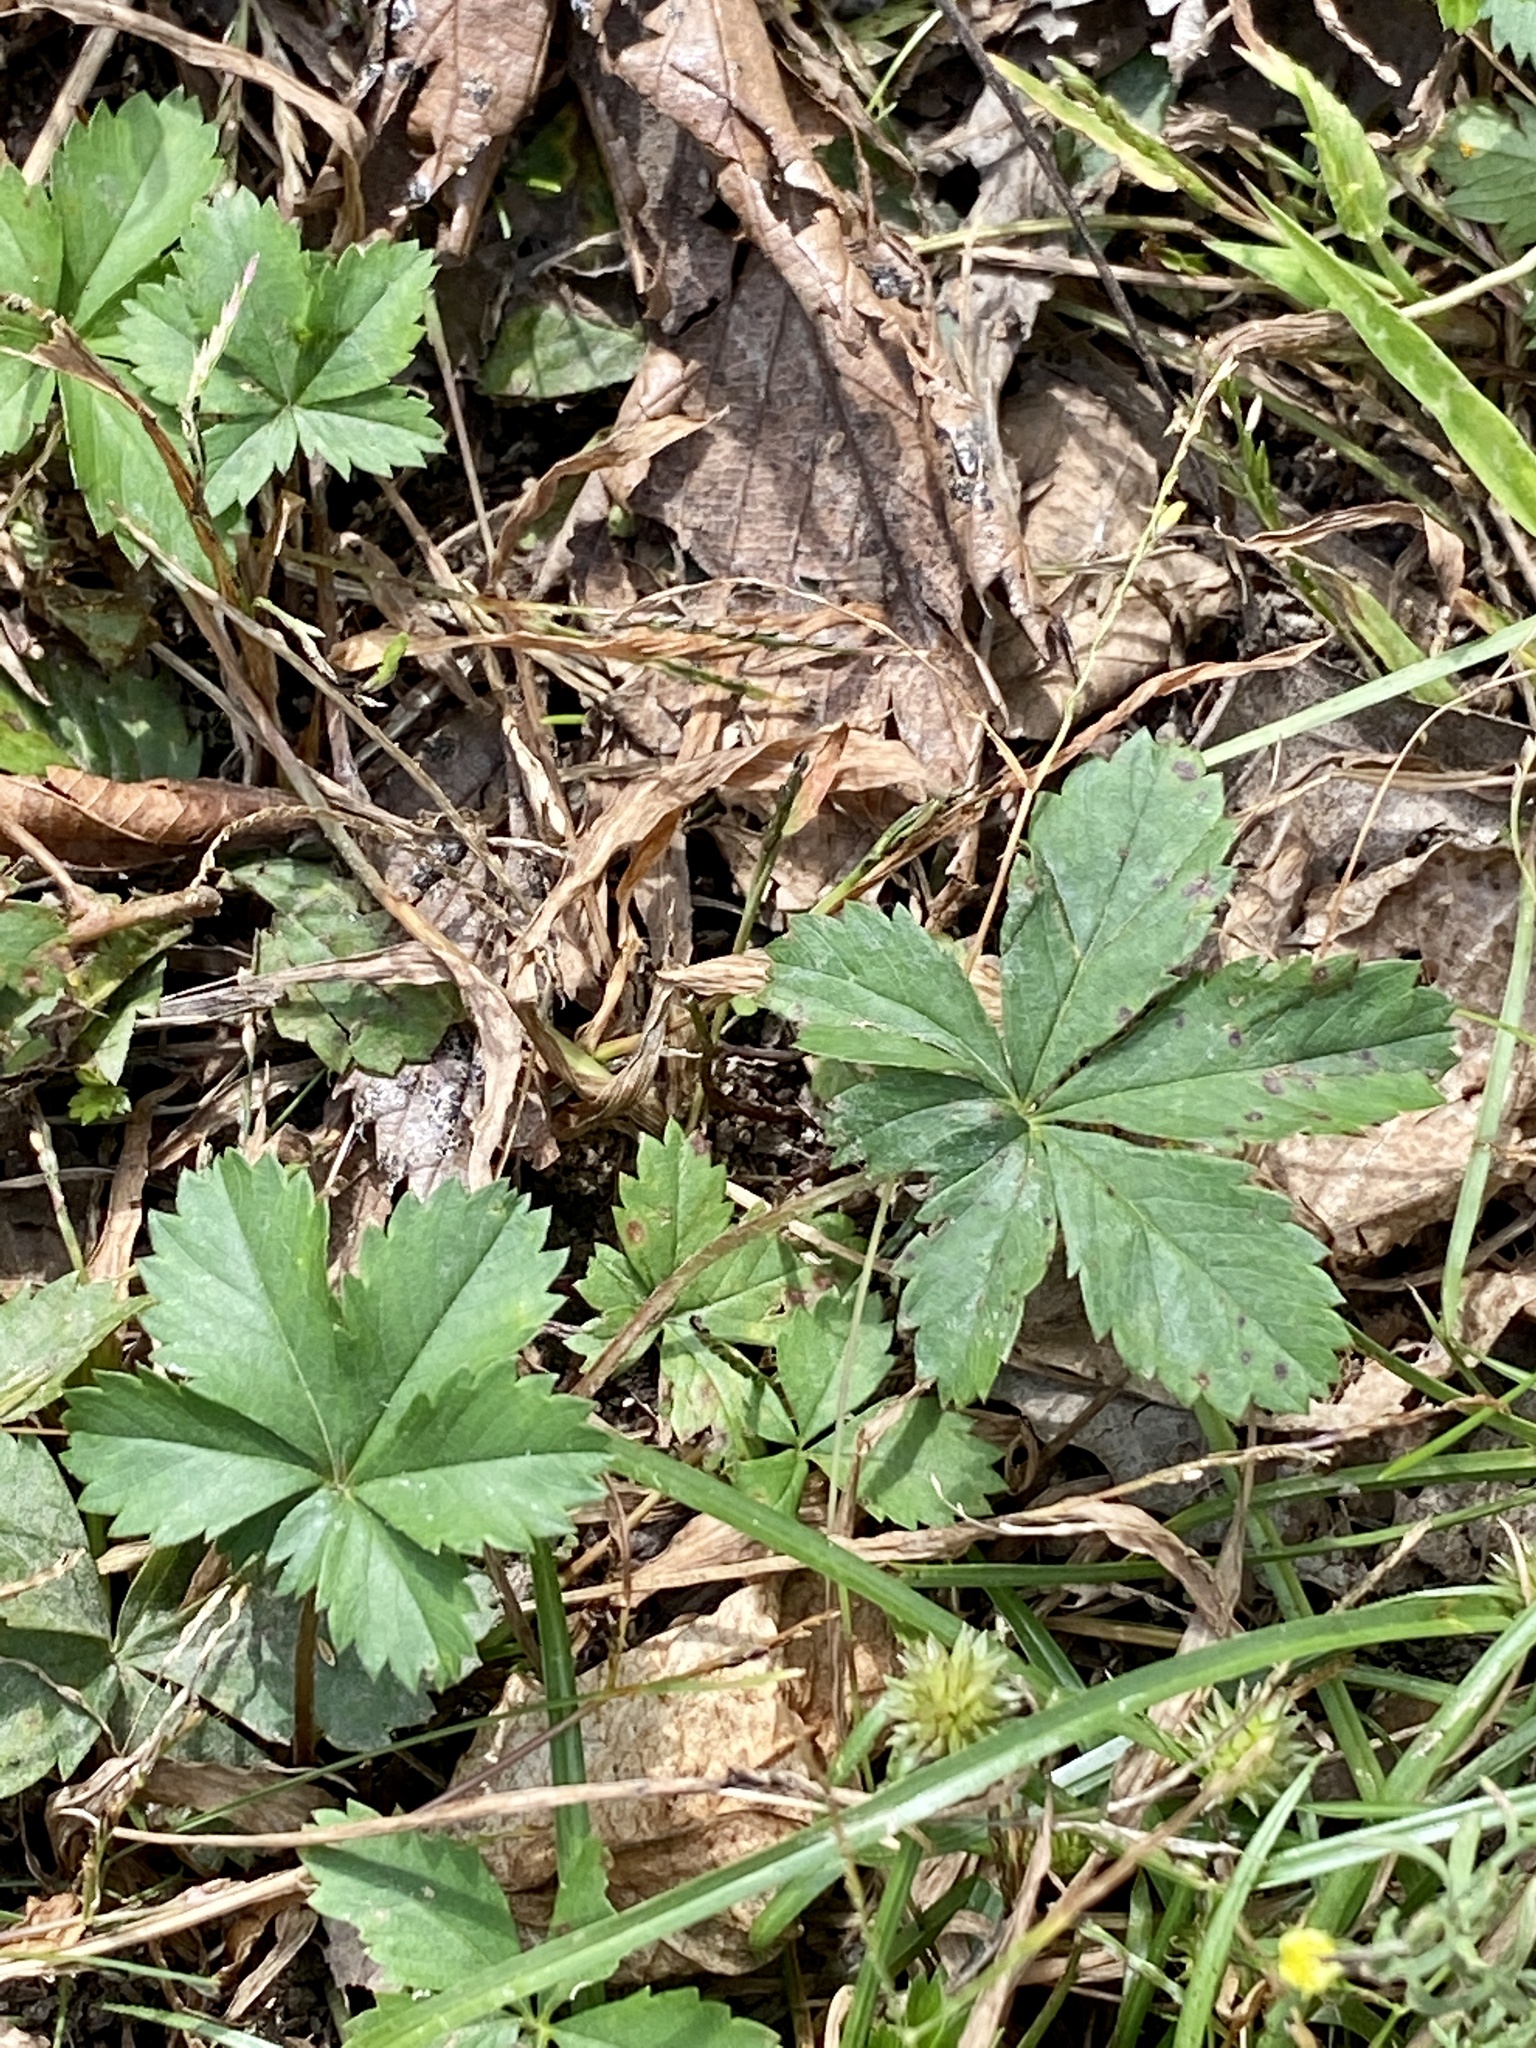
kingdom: Plantae
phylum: Tracheophyta
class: Magnoliopsida
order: Rosales
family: Rosaceae
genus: Potentilla
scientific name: Potentilla canadensis
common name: Canada cinquefoil
